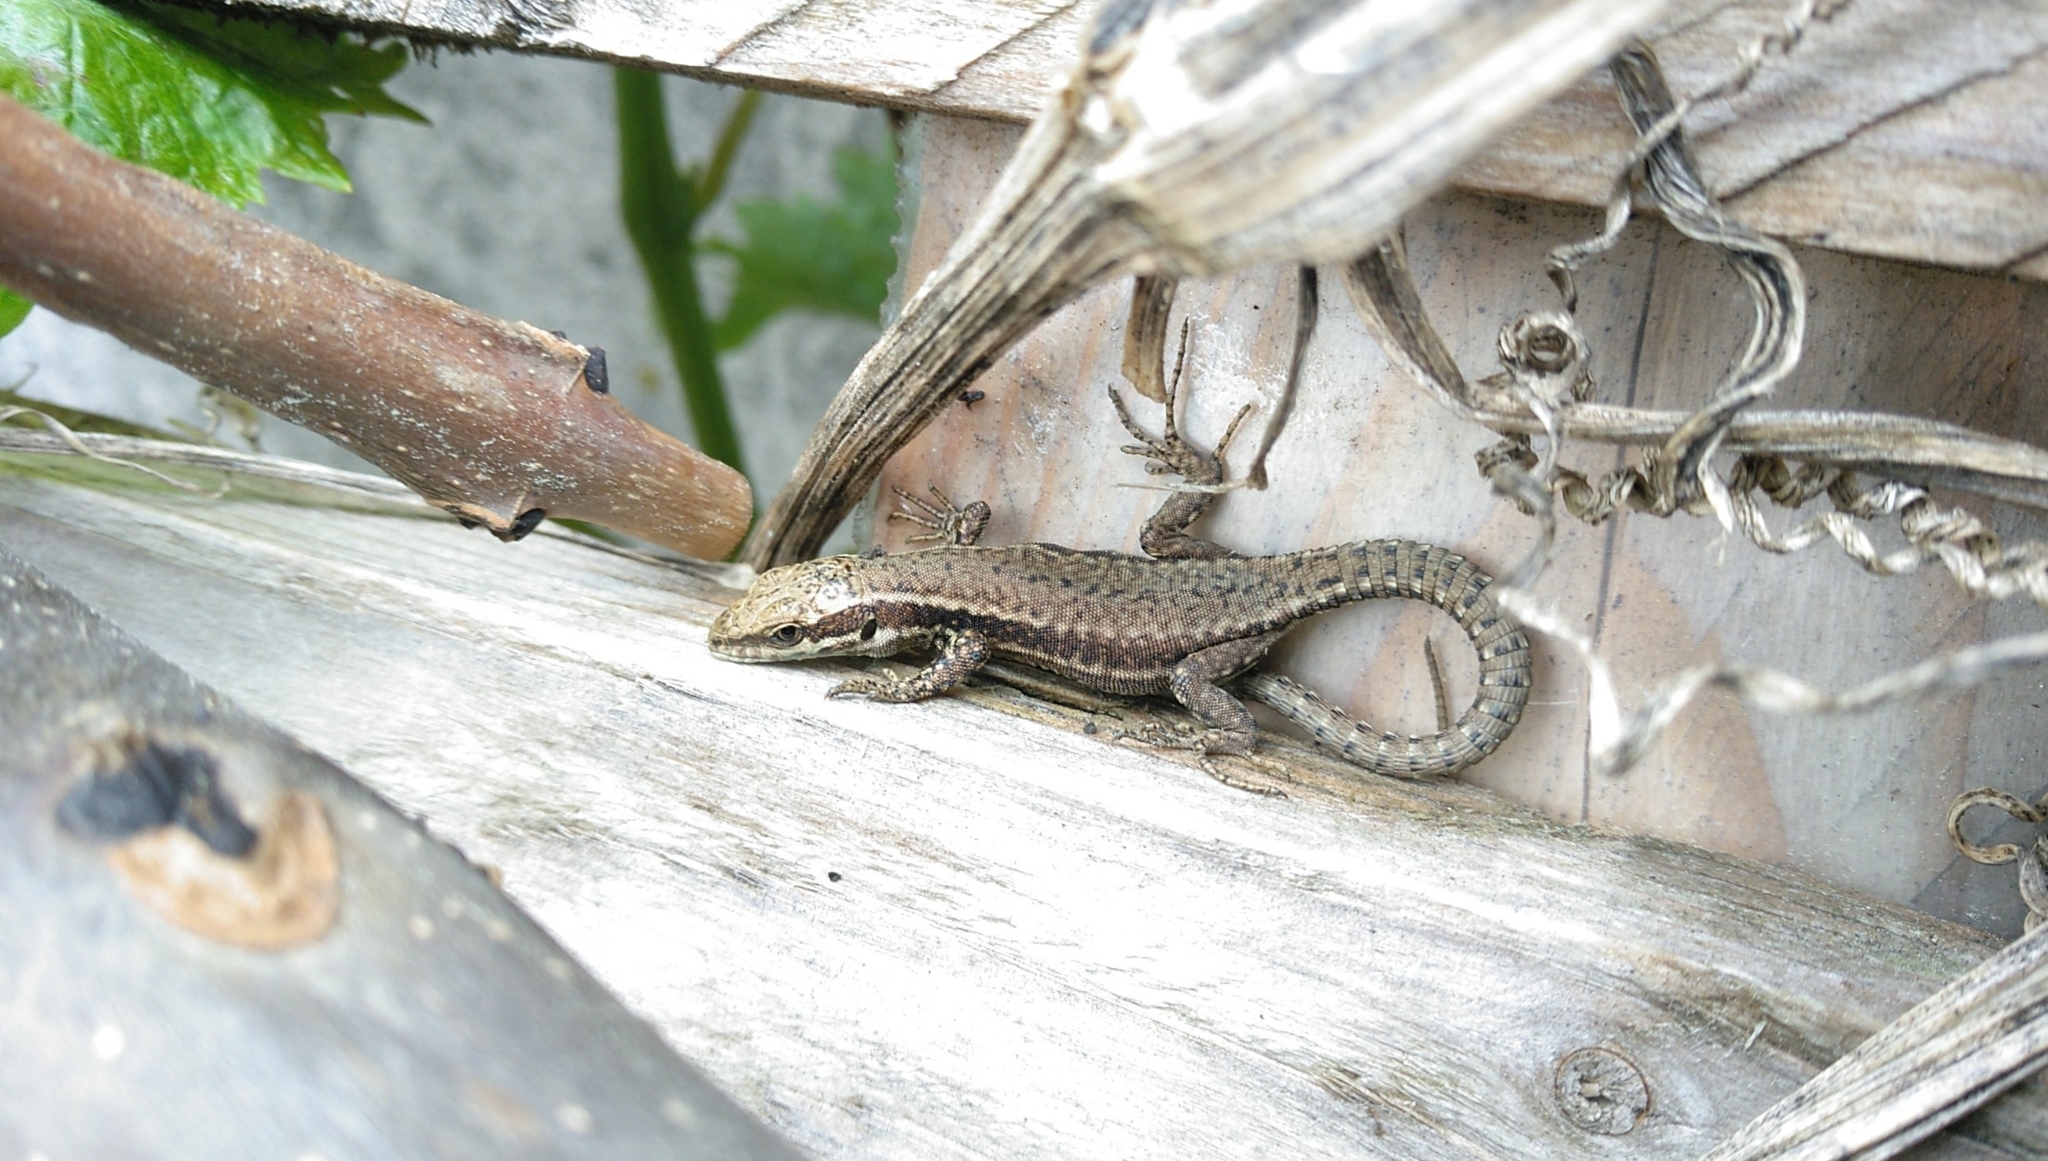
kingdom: Animalia
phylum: Chordata
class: Squamata
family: Lacertidae
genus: Podarcis
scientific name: Podarcis muralis
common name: Common wall lizard
